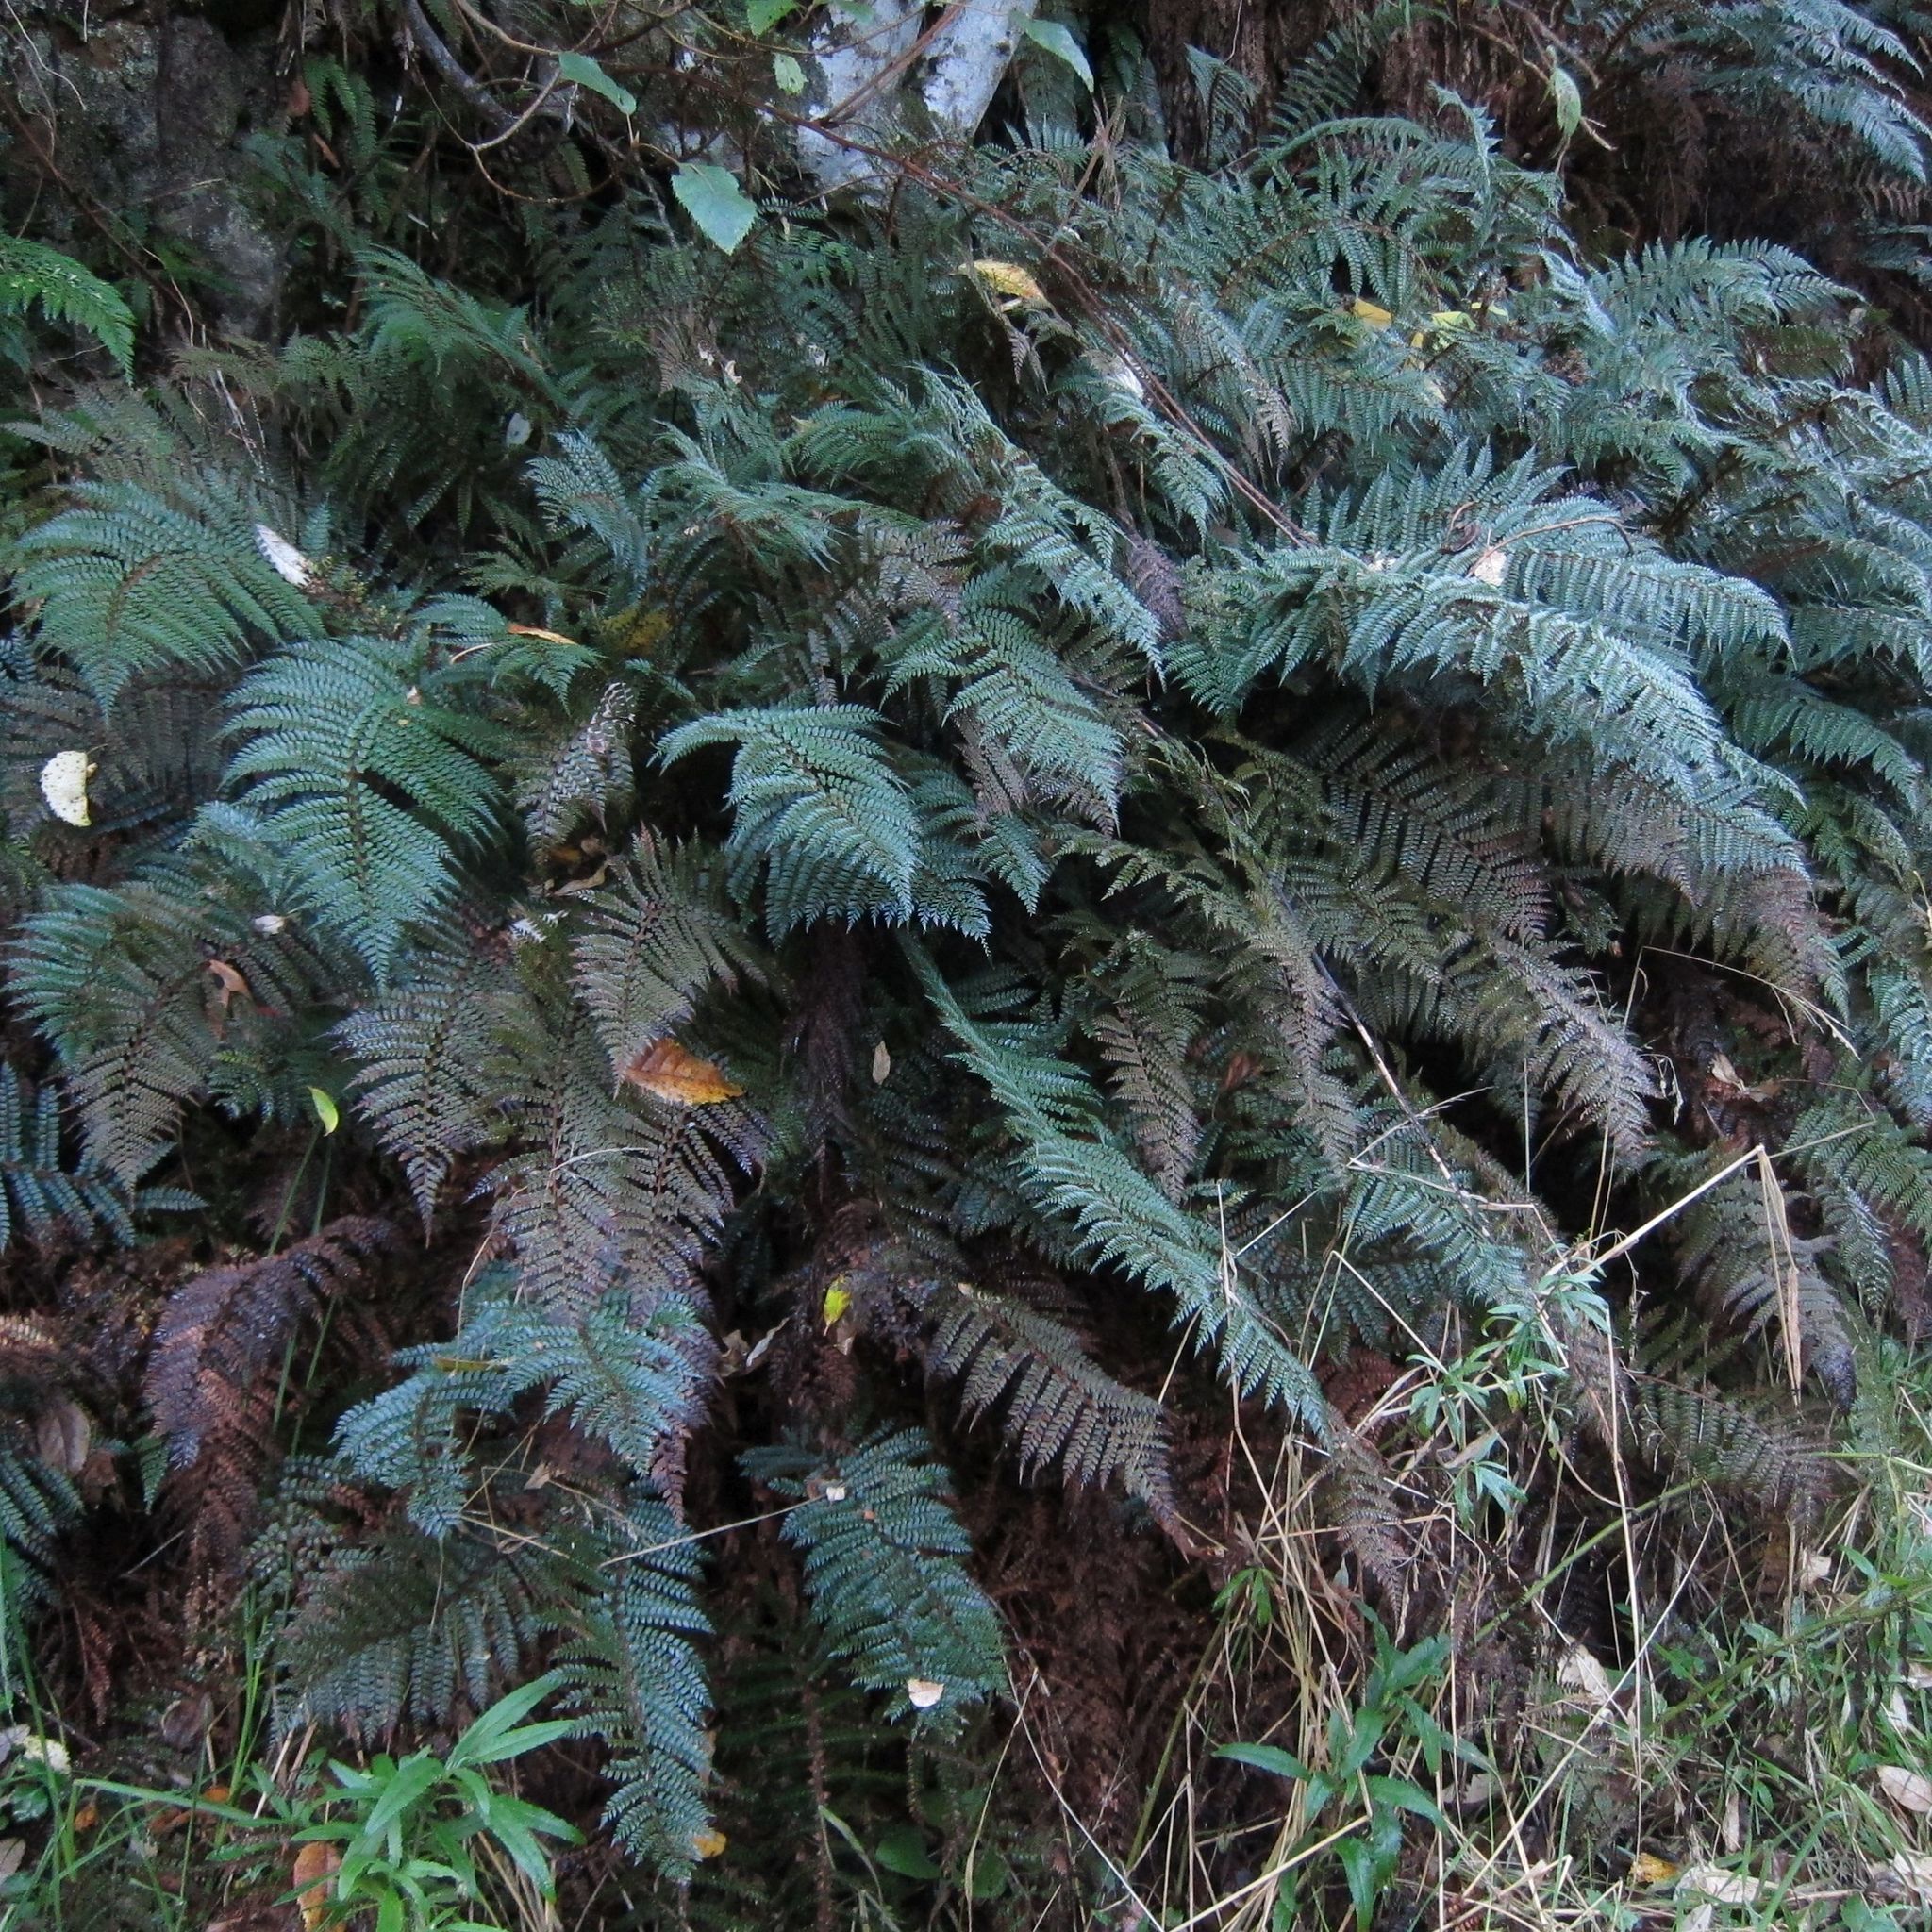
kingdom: Plantae
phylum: Tracheophyta
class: Polypodiopsida
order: Polypodiales
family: Dryopteridaceae
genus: Polystichum
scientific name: Polystichum vestitum
